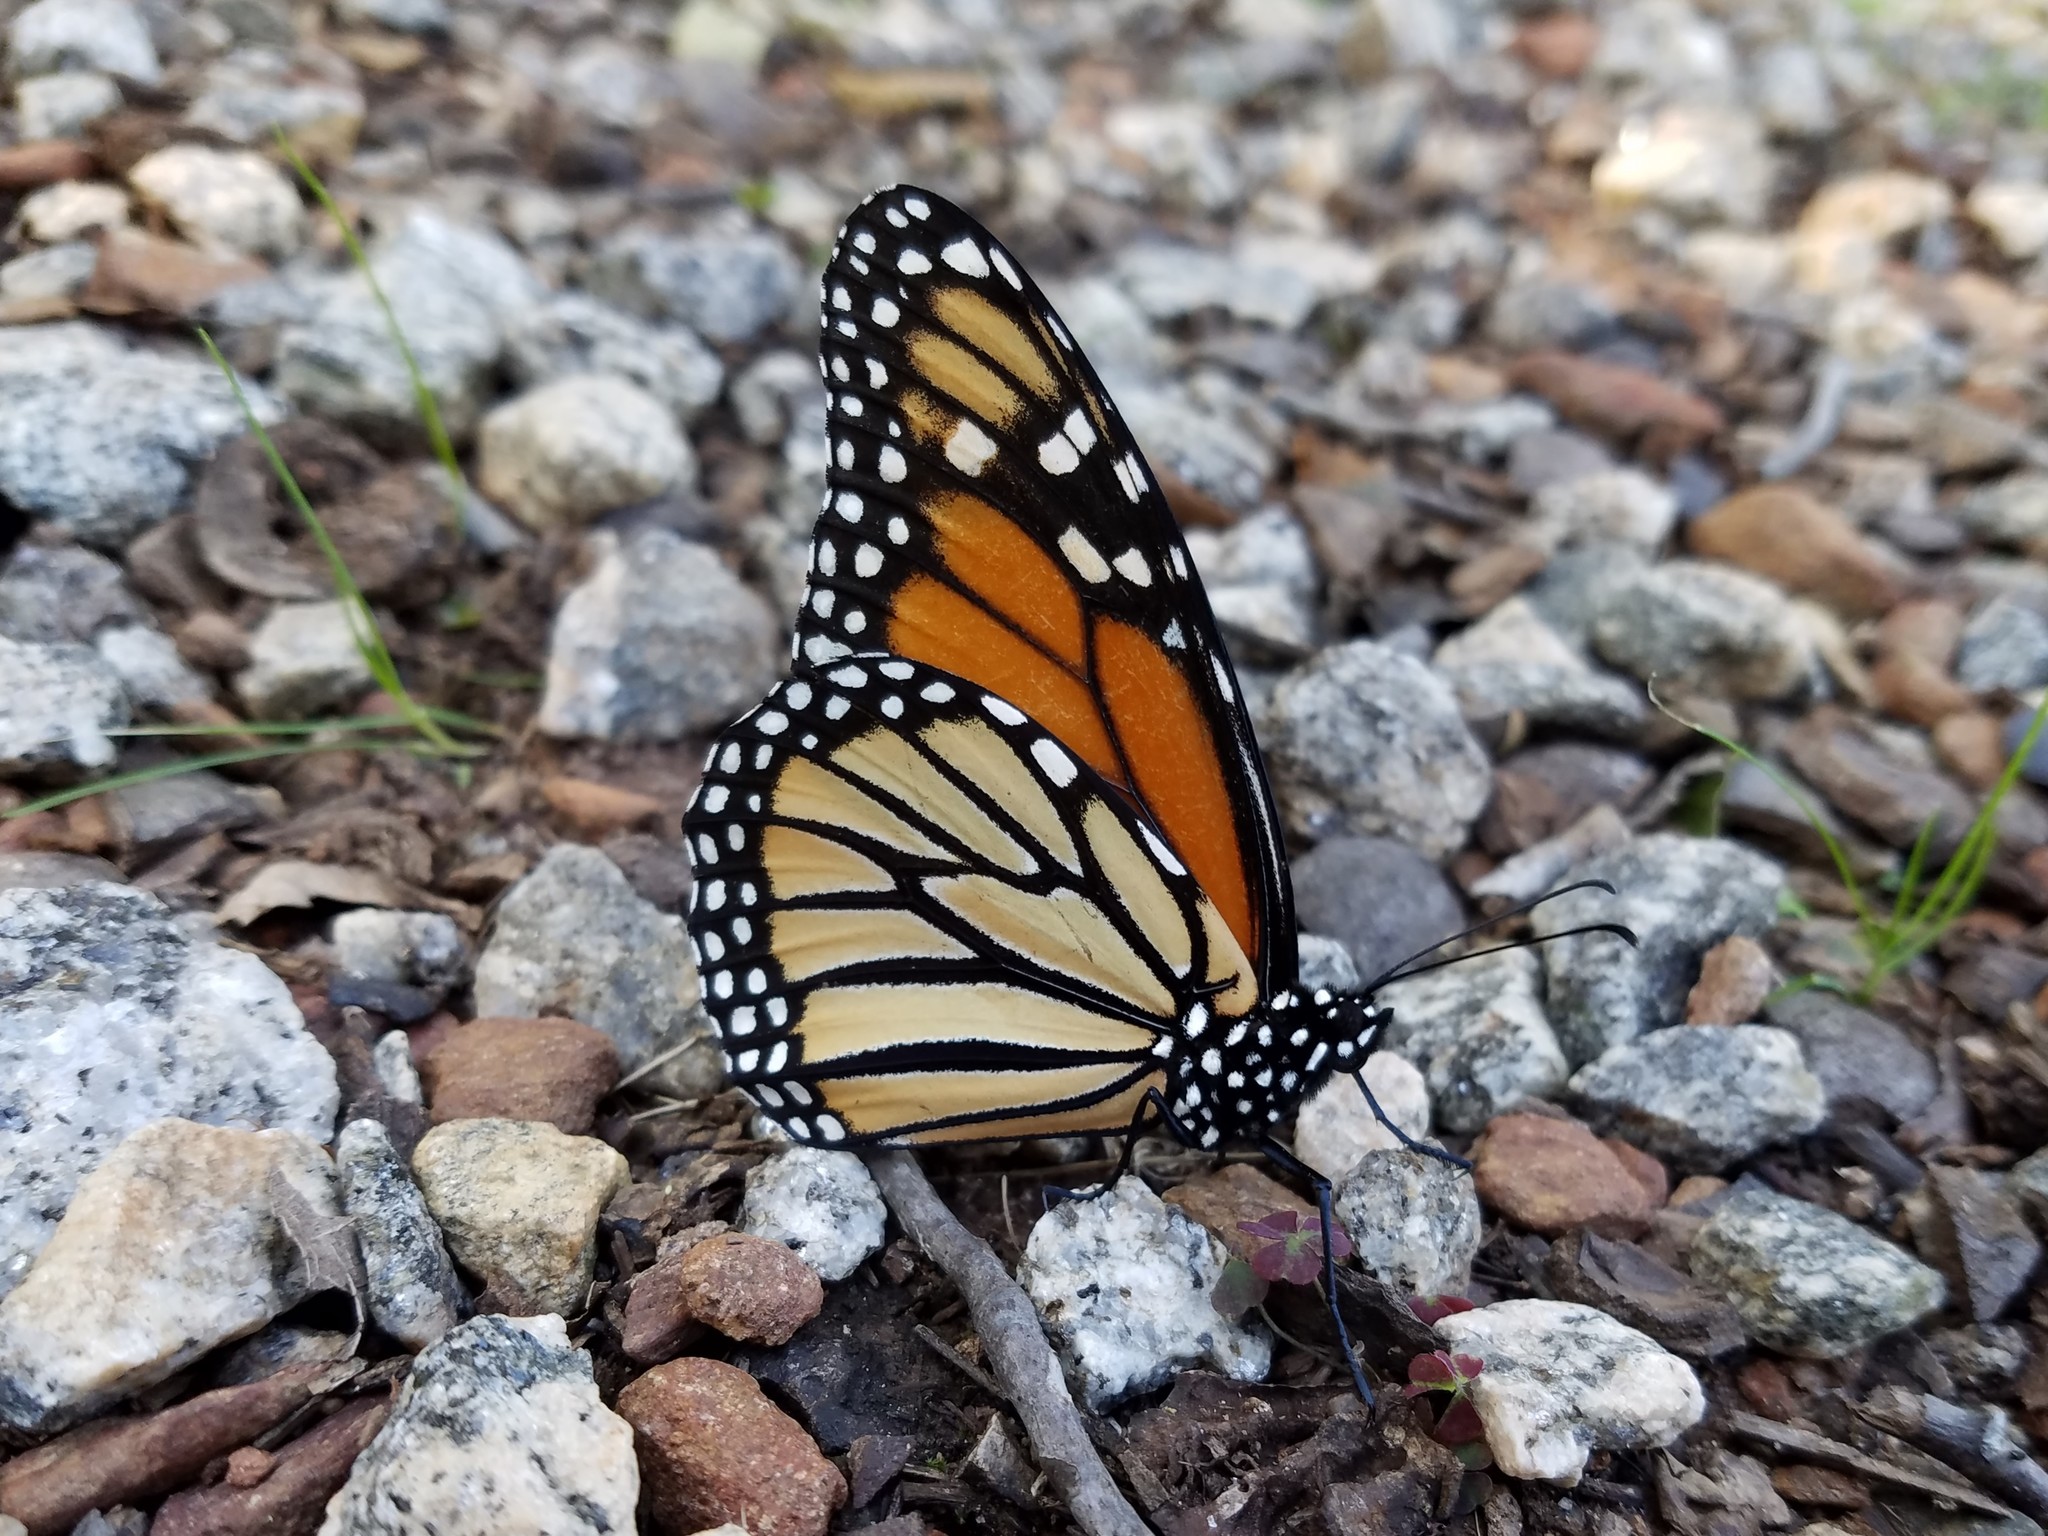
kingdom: Animalia
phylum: Arthropoda
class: Insecta
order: Lepidoptera
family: Nymphalidae
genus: Danaus
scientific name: Danaus plexippus
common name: Monarch
